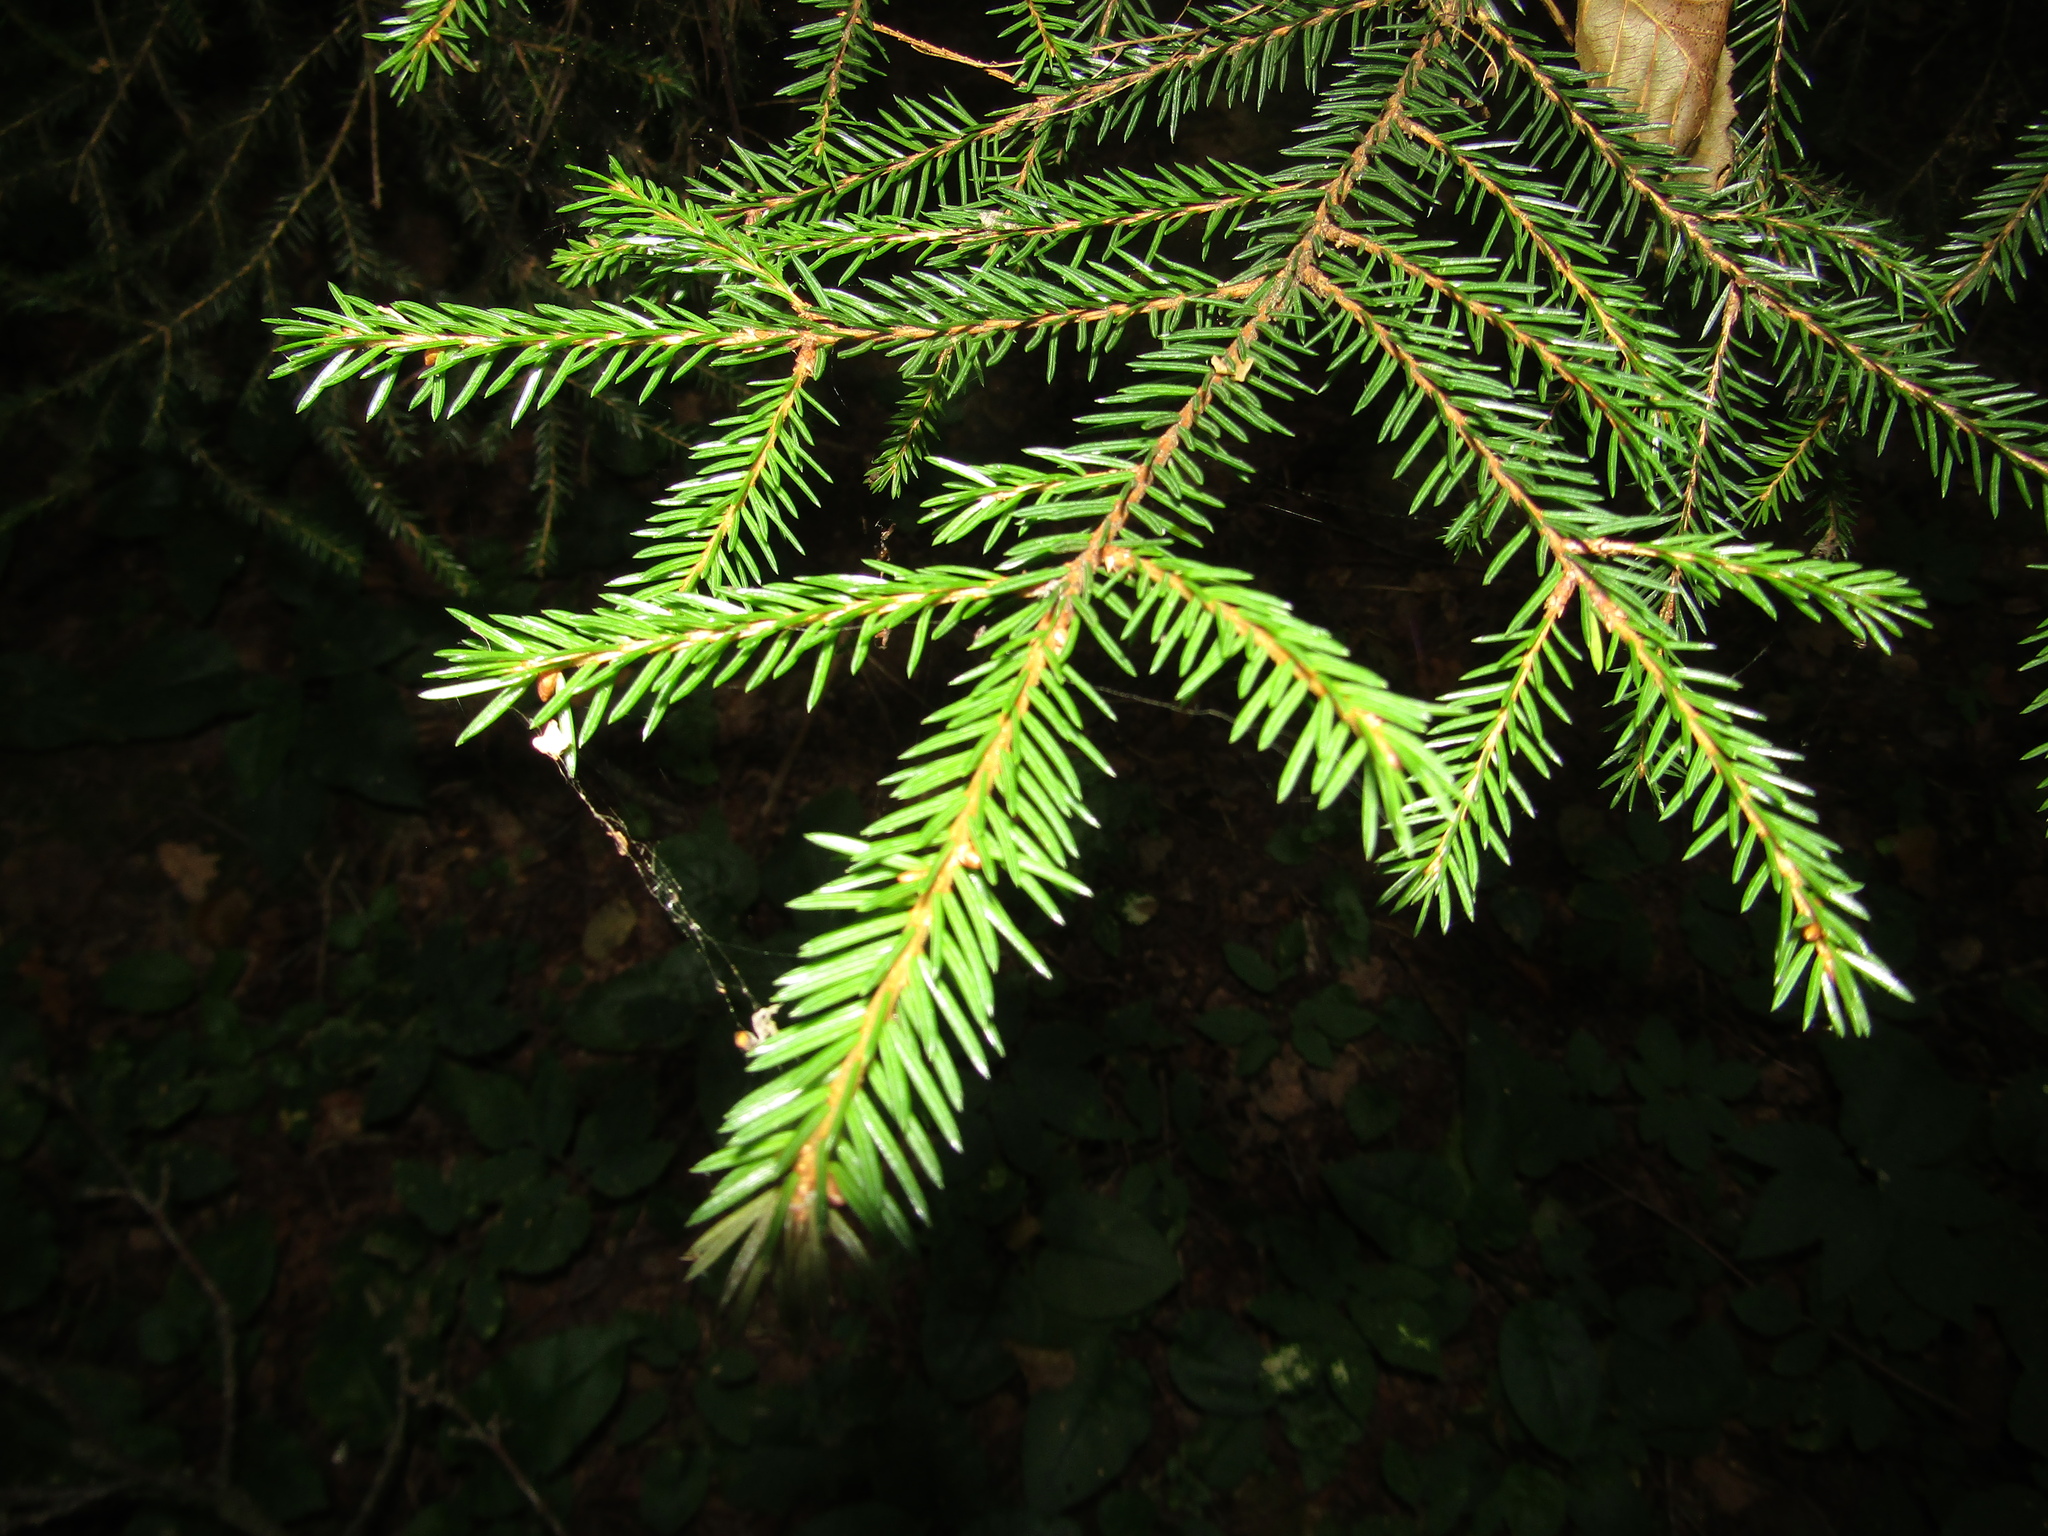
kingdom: Plantae
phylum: Tracheophyta
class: Pinopsida
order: Pinales
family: Pinaceae
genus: Picea
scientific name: Picea abies
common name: Norway spruce
